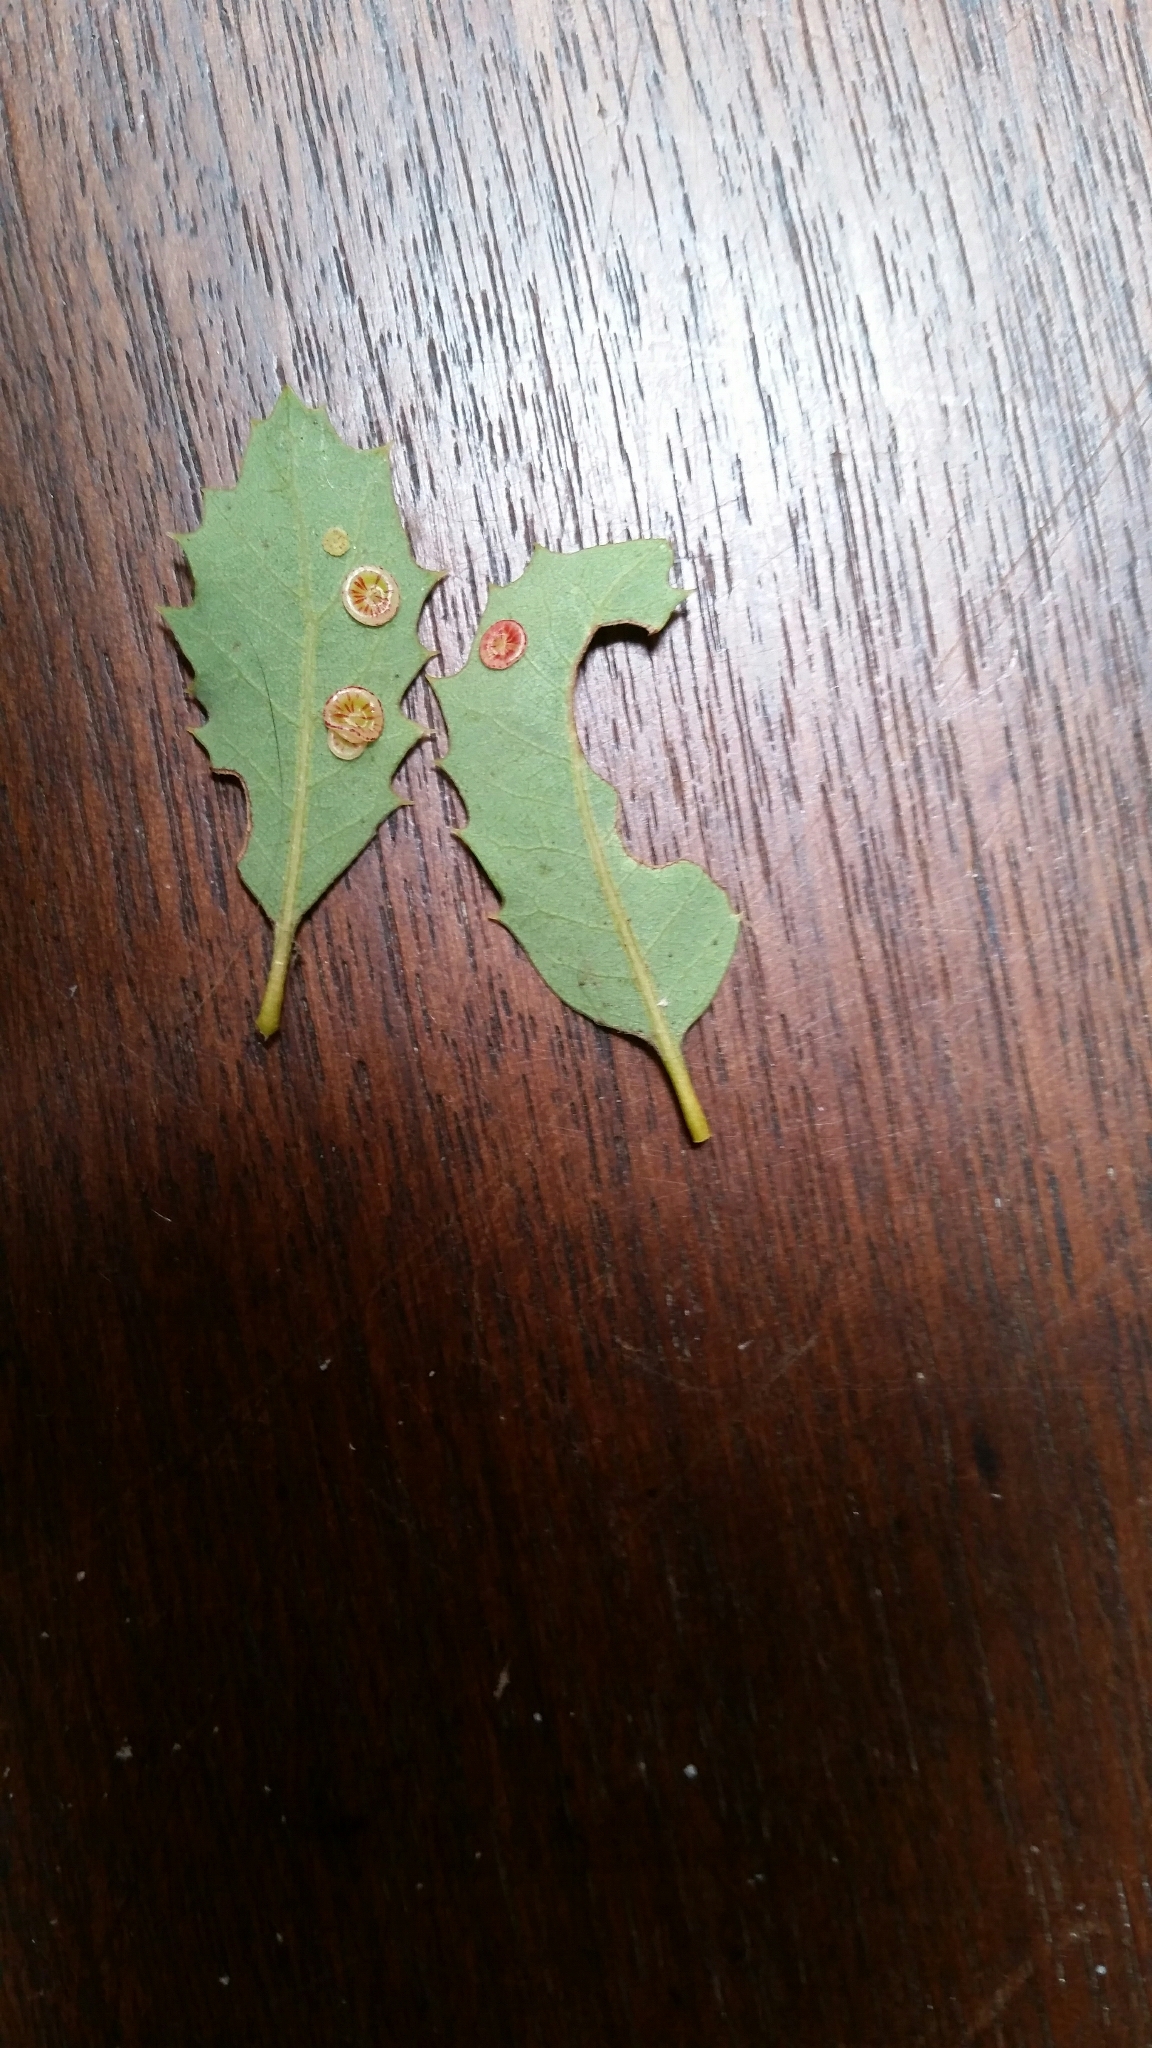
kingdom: Animalia
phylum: Arthropoda
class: Insecta
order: Hymenoptera
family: Cynipidae
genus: Andricus
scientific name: Andricus
